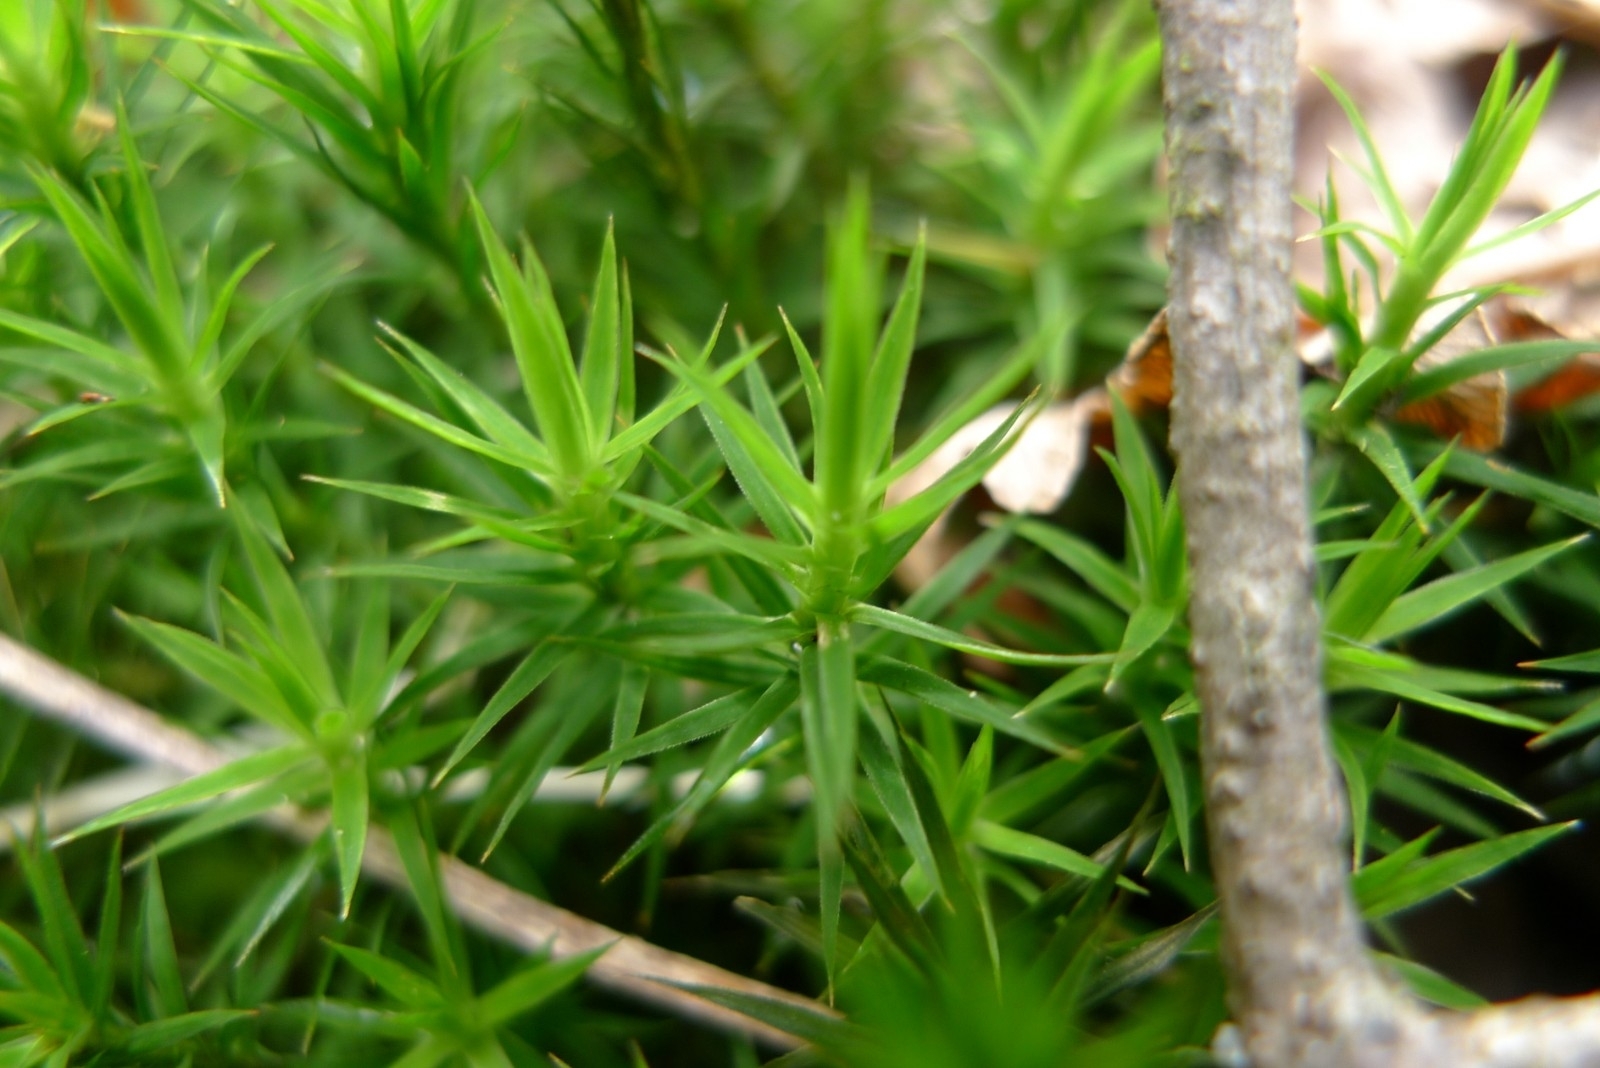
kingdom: Plantae
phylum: Bryophyta
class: Polytrichopsida
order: Polytrichales
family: Polytrichaceae
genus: Polytrichum
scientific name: Polytrichum formosum
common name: Bank haircap moss
